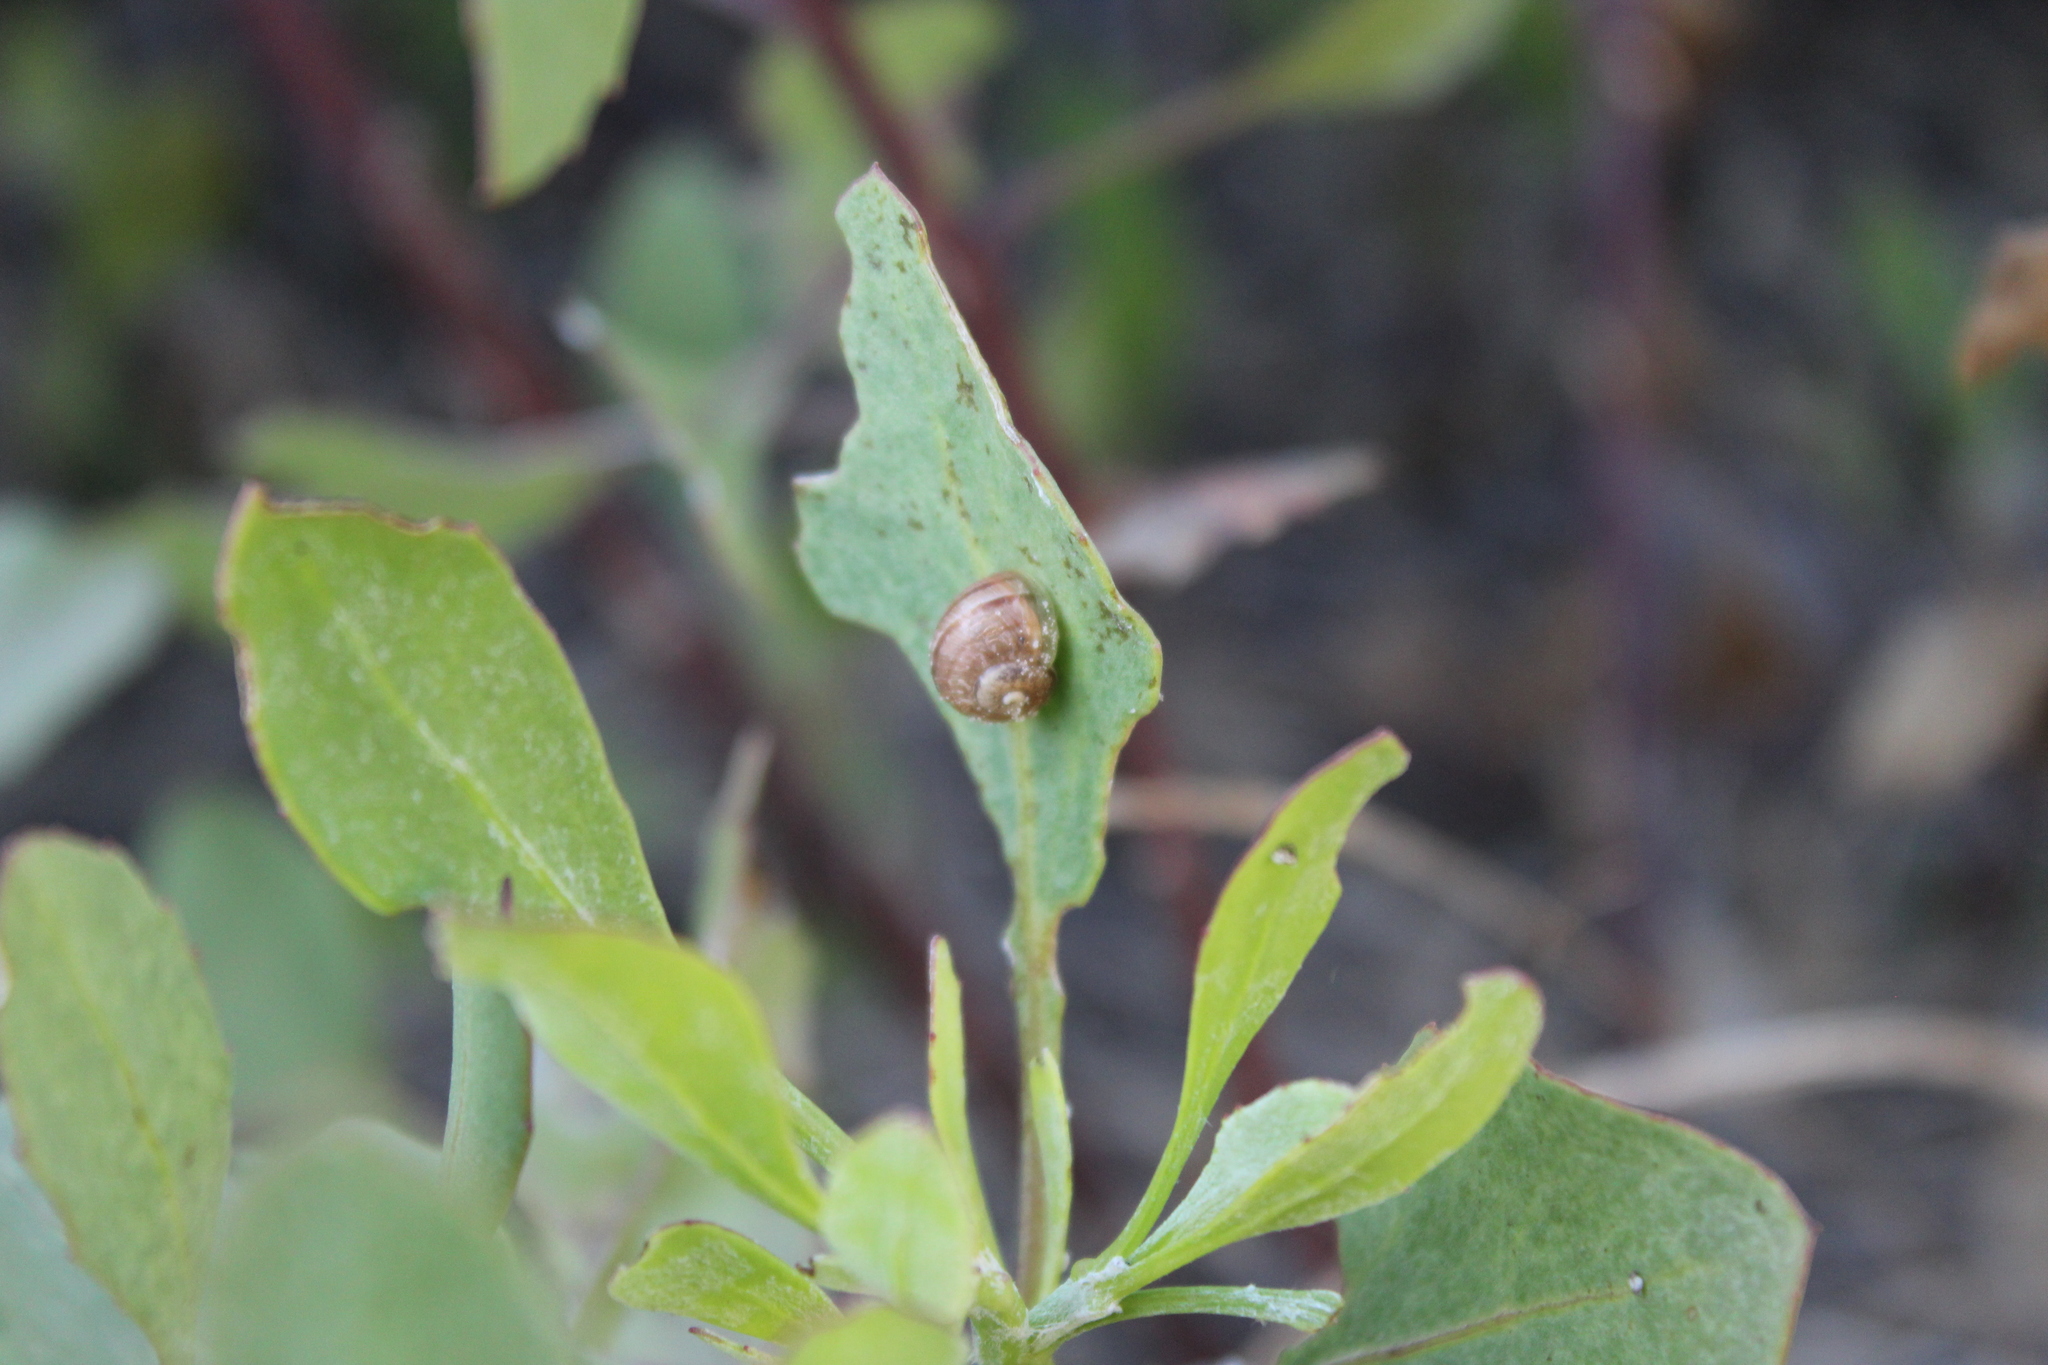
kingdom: Animalia
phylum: Mollusca
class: Gastropoda
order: Stylommatophora
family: Helicidae
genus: Cornu
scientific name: Cornu aspersum
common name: Brown garden snail
